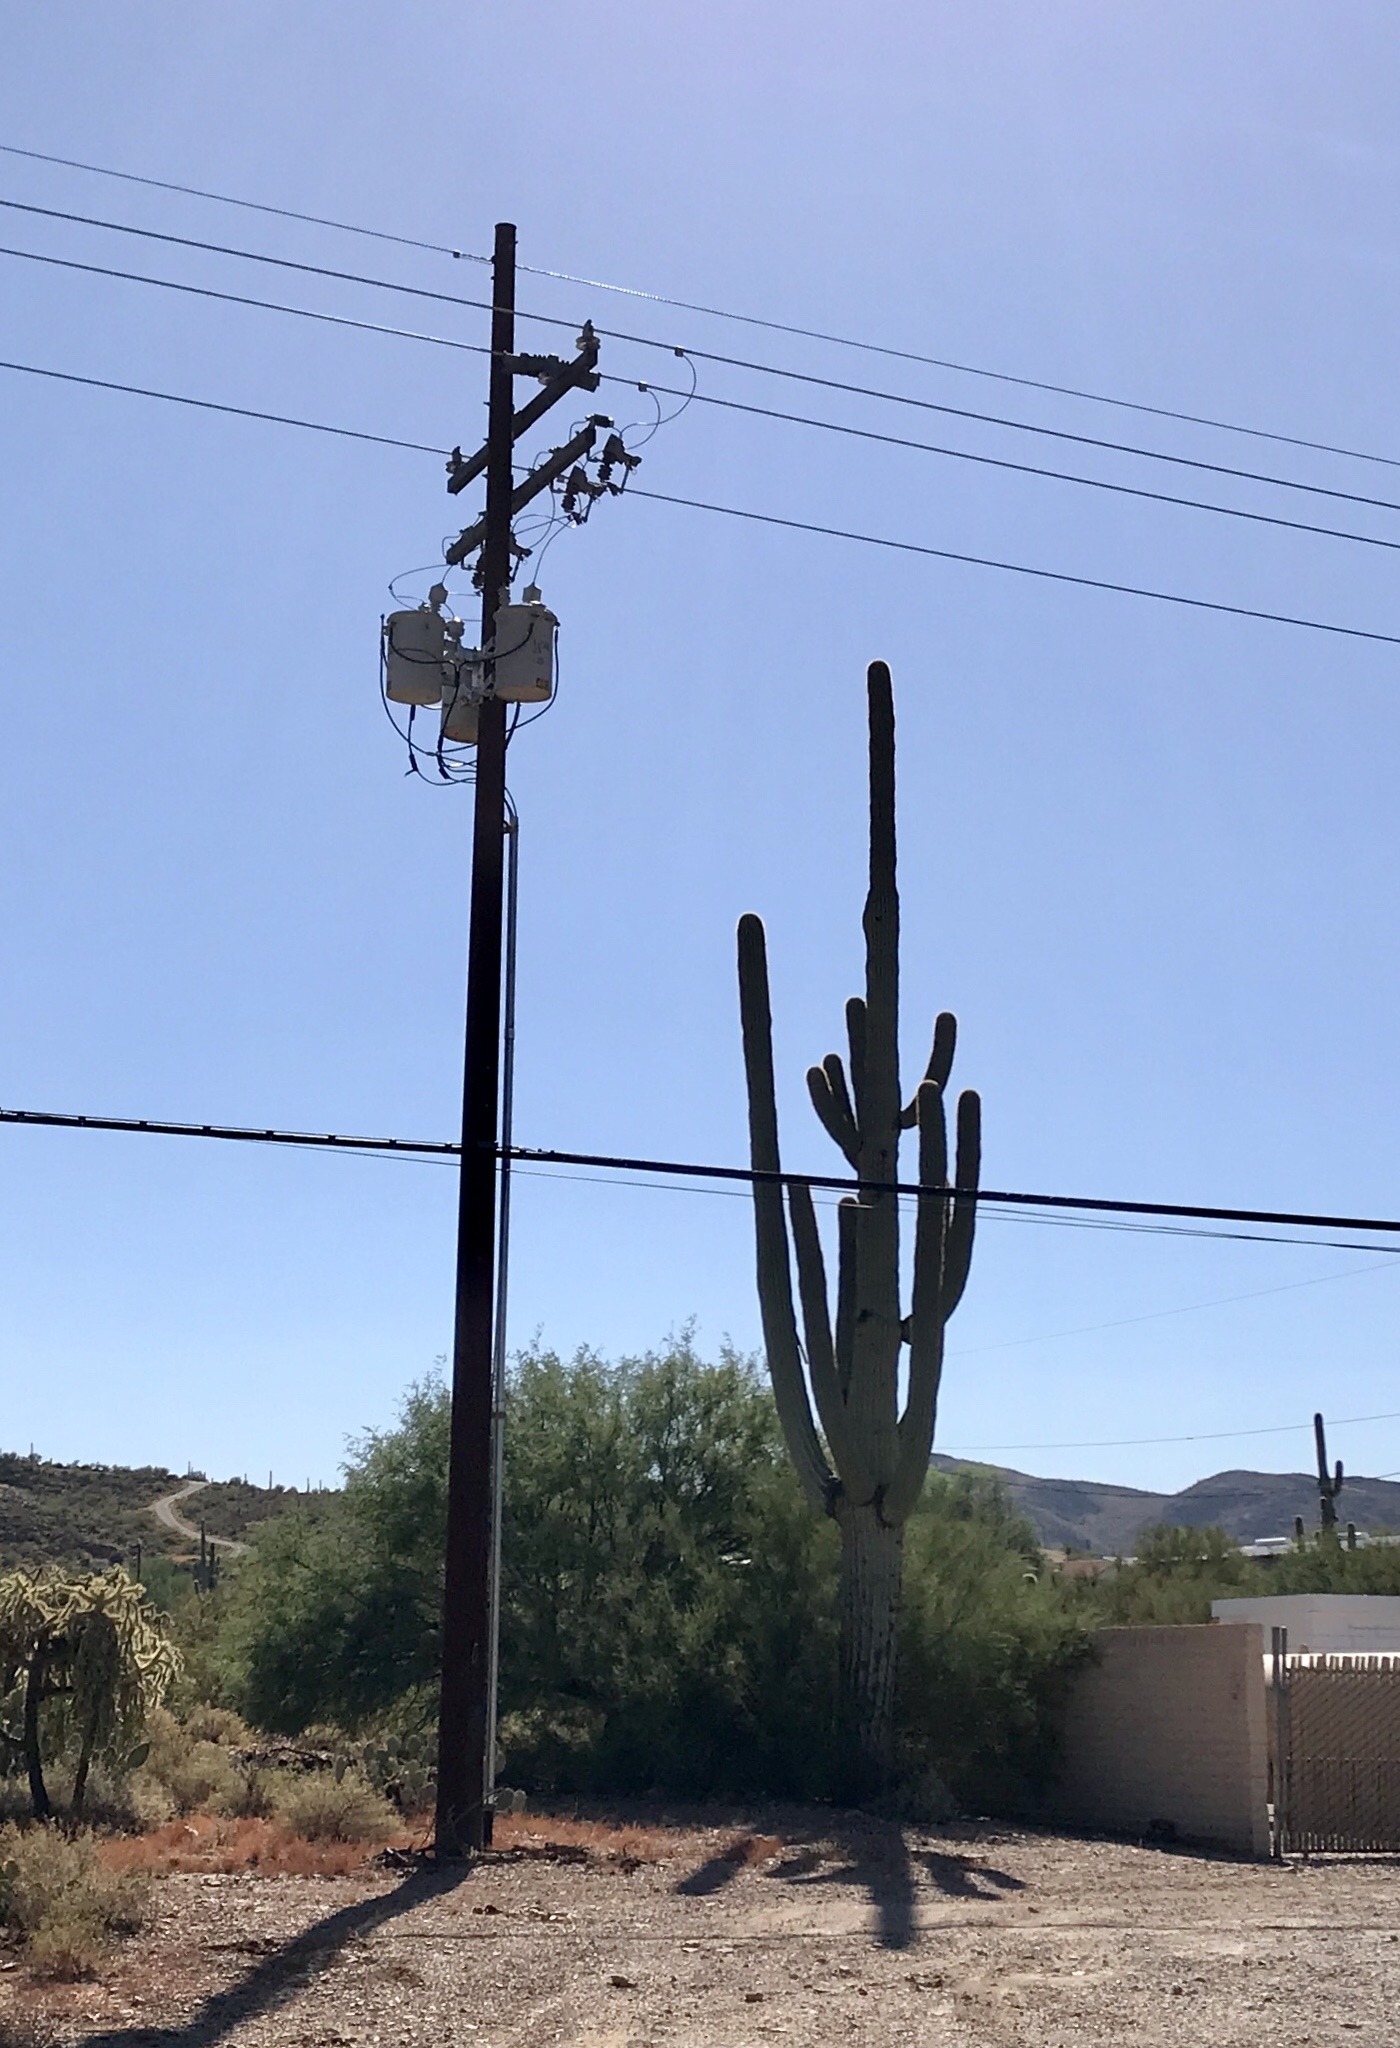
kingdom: Plantae
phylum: Tracheophyta
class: Magnoliopsida
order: Caryophyllales
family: Cactaceae
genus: Carnegiea
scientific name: Carnegiea gigantea
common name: Saguaro
